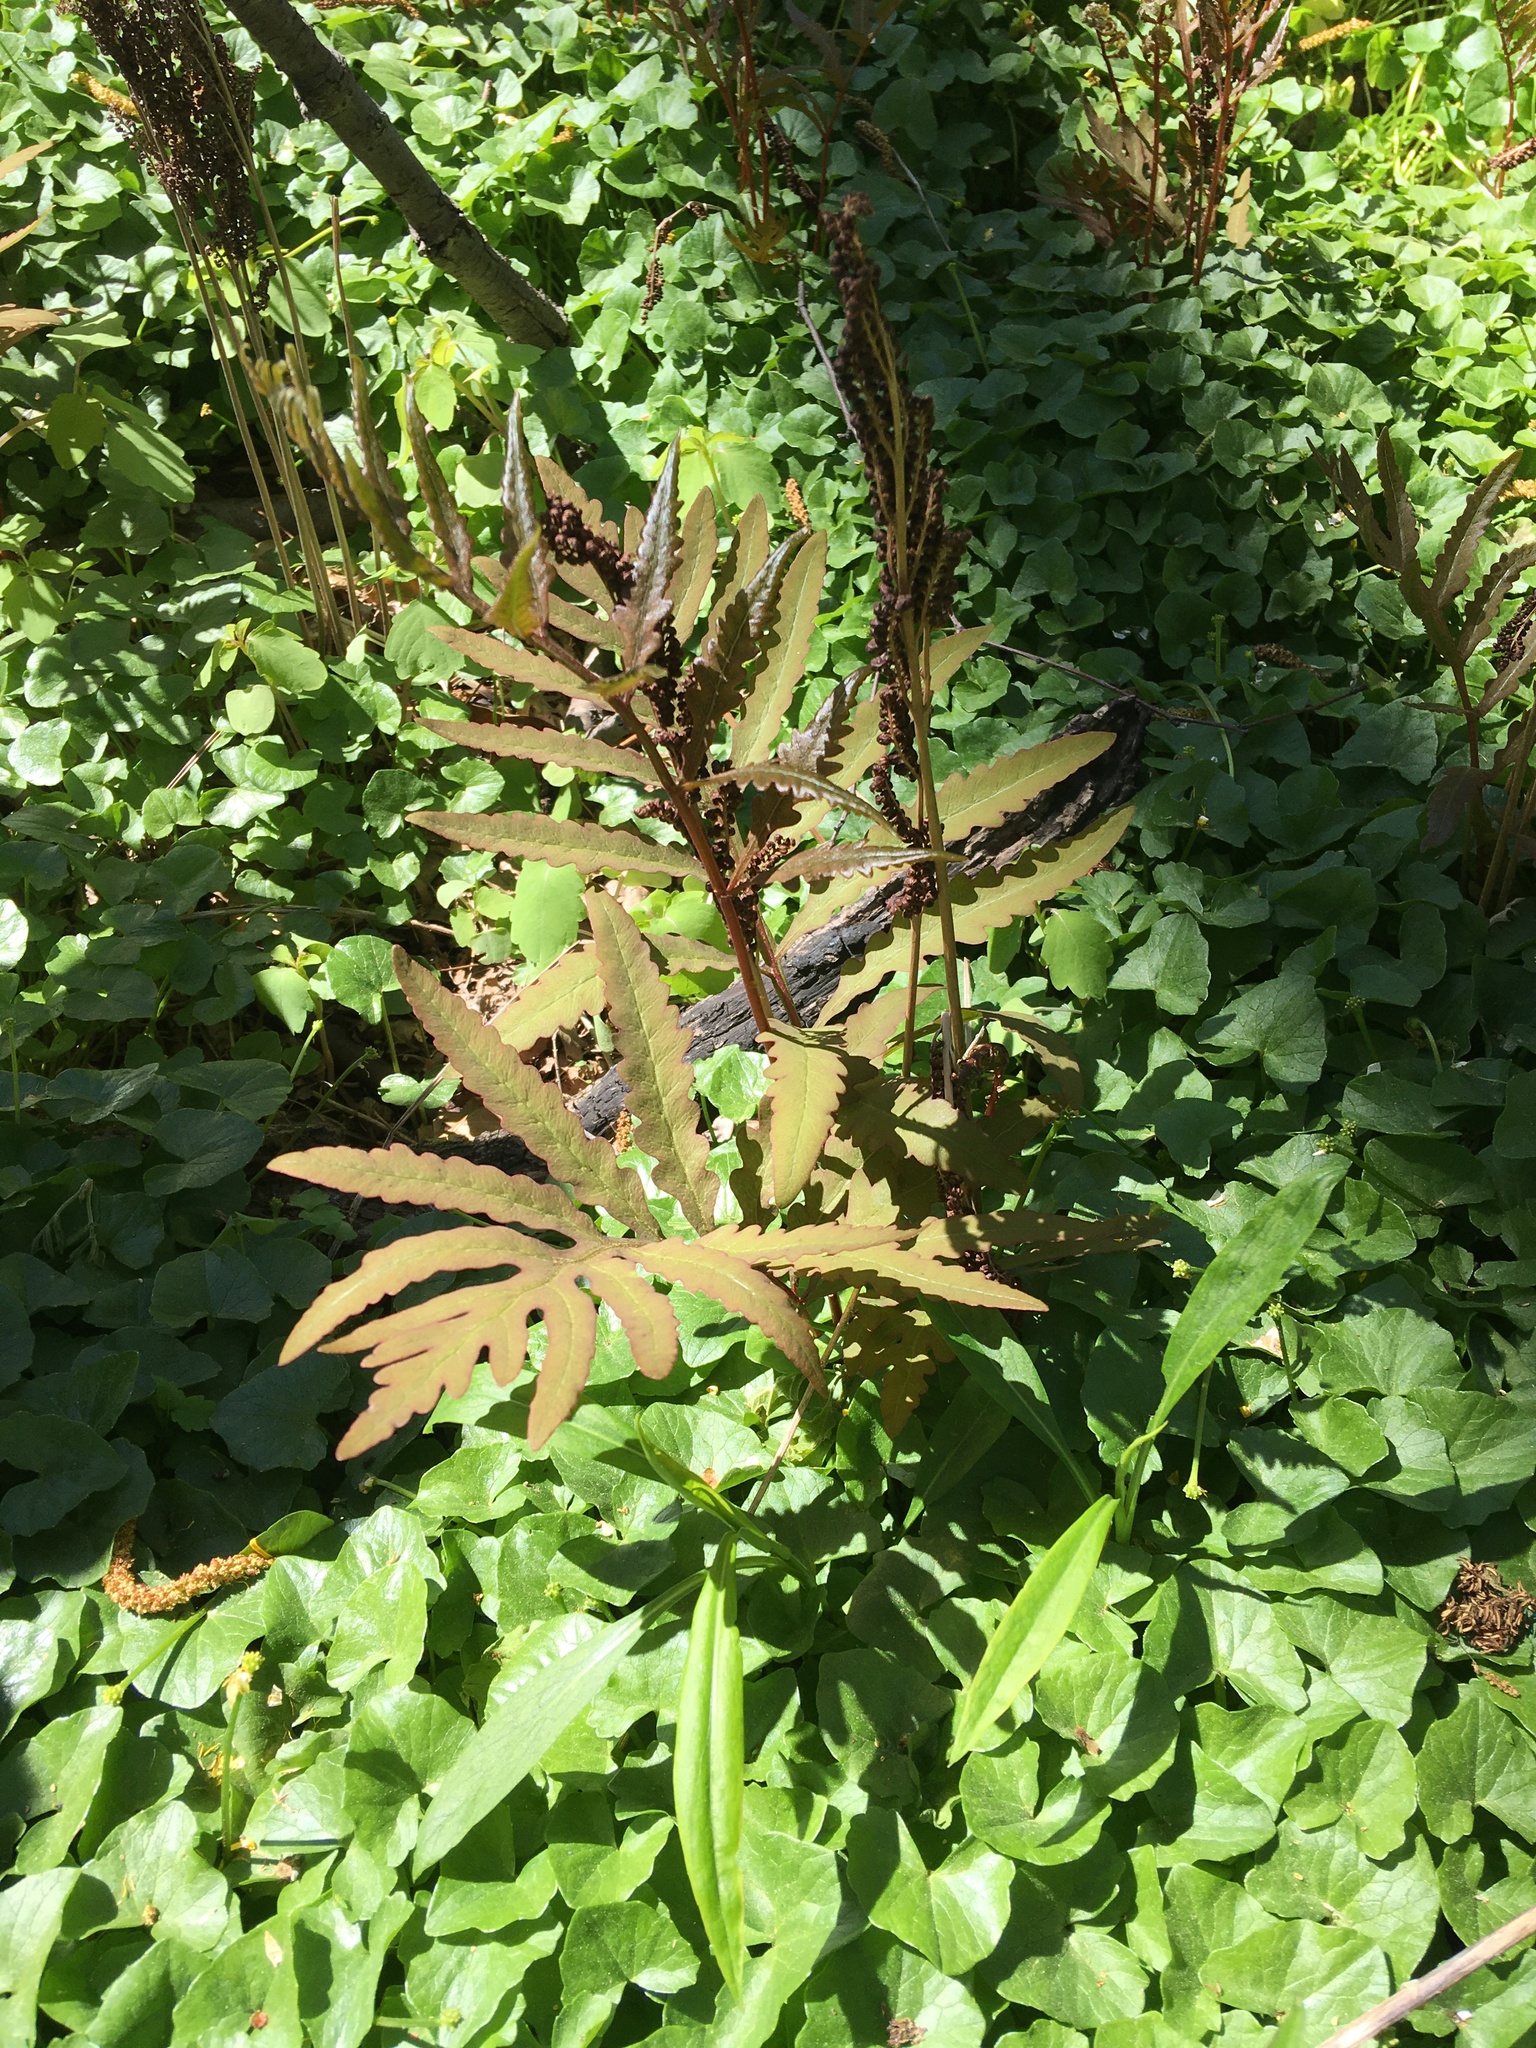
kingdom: Plantae
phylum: Tracheophyta
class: Polypodiopsida
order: Polypodiales
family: Onocleaceae
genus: Onoclea
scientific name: Onoclea sensibilis
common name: Sensitive fern
